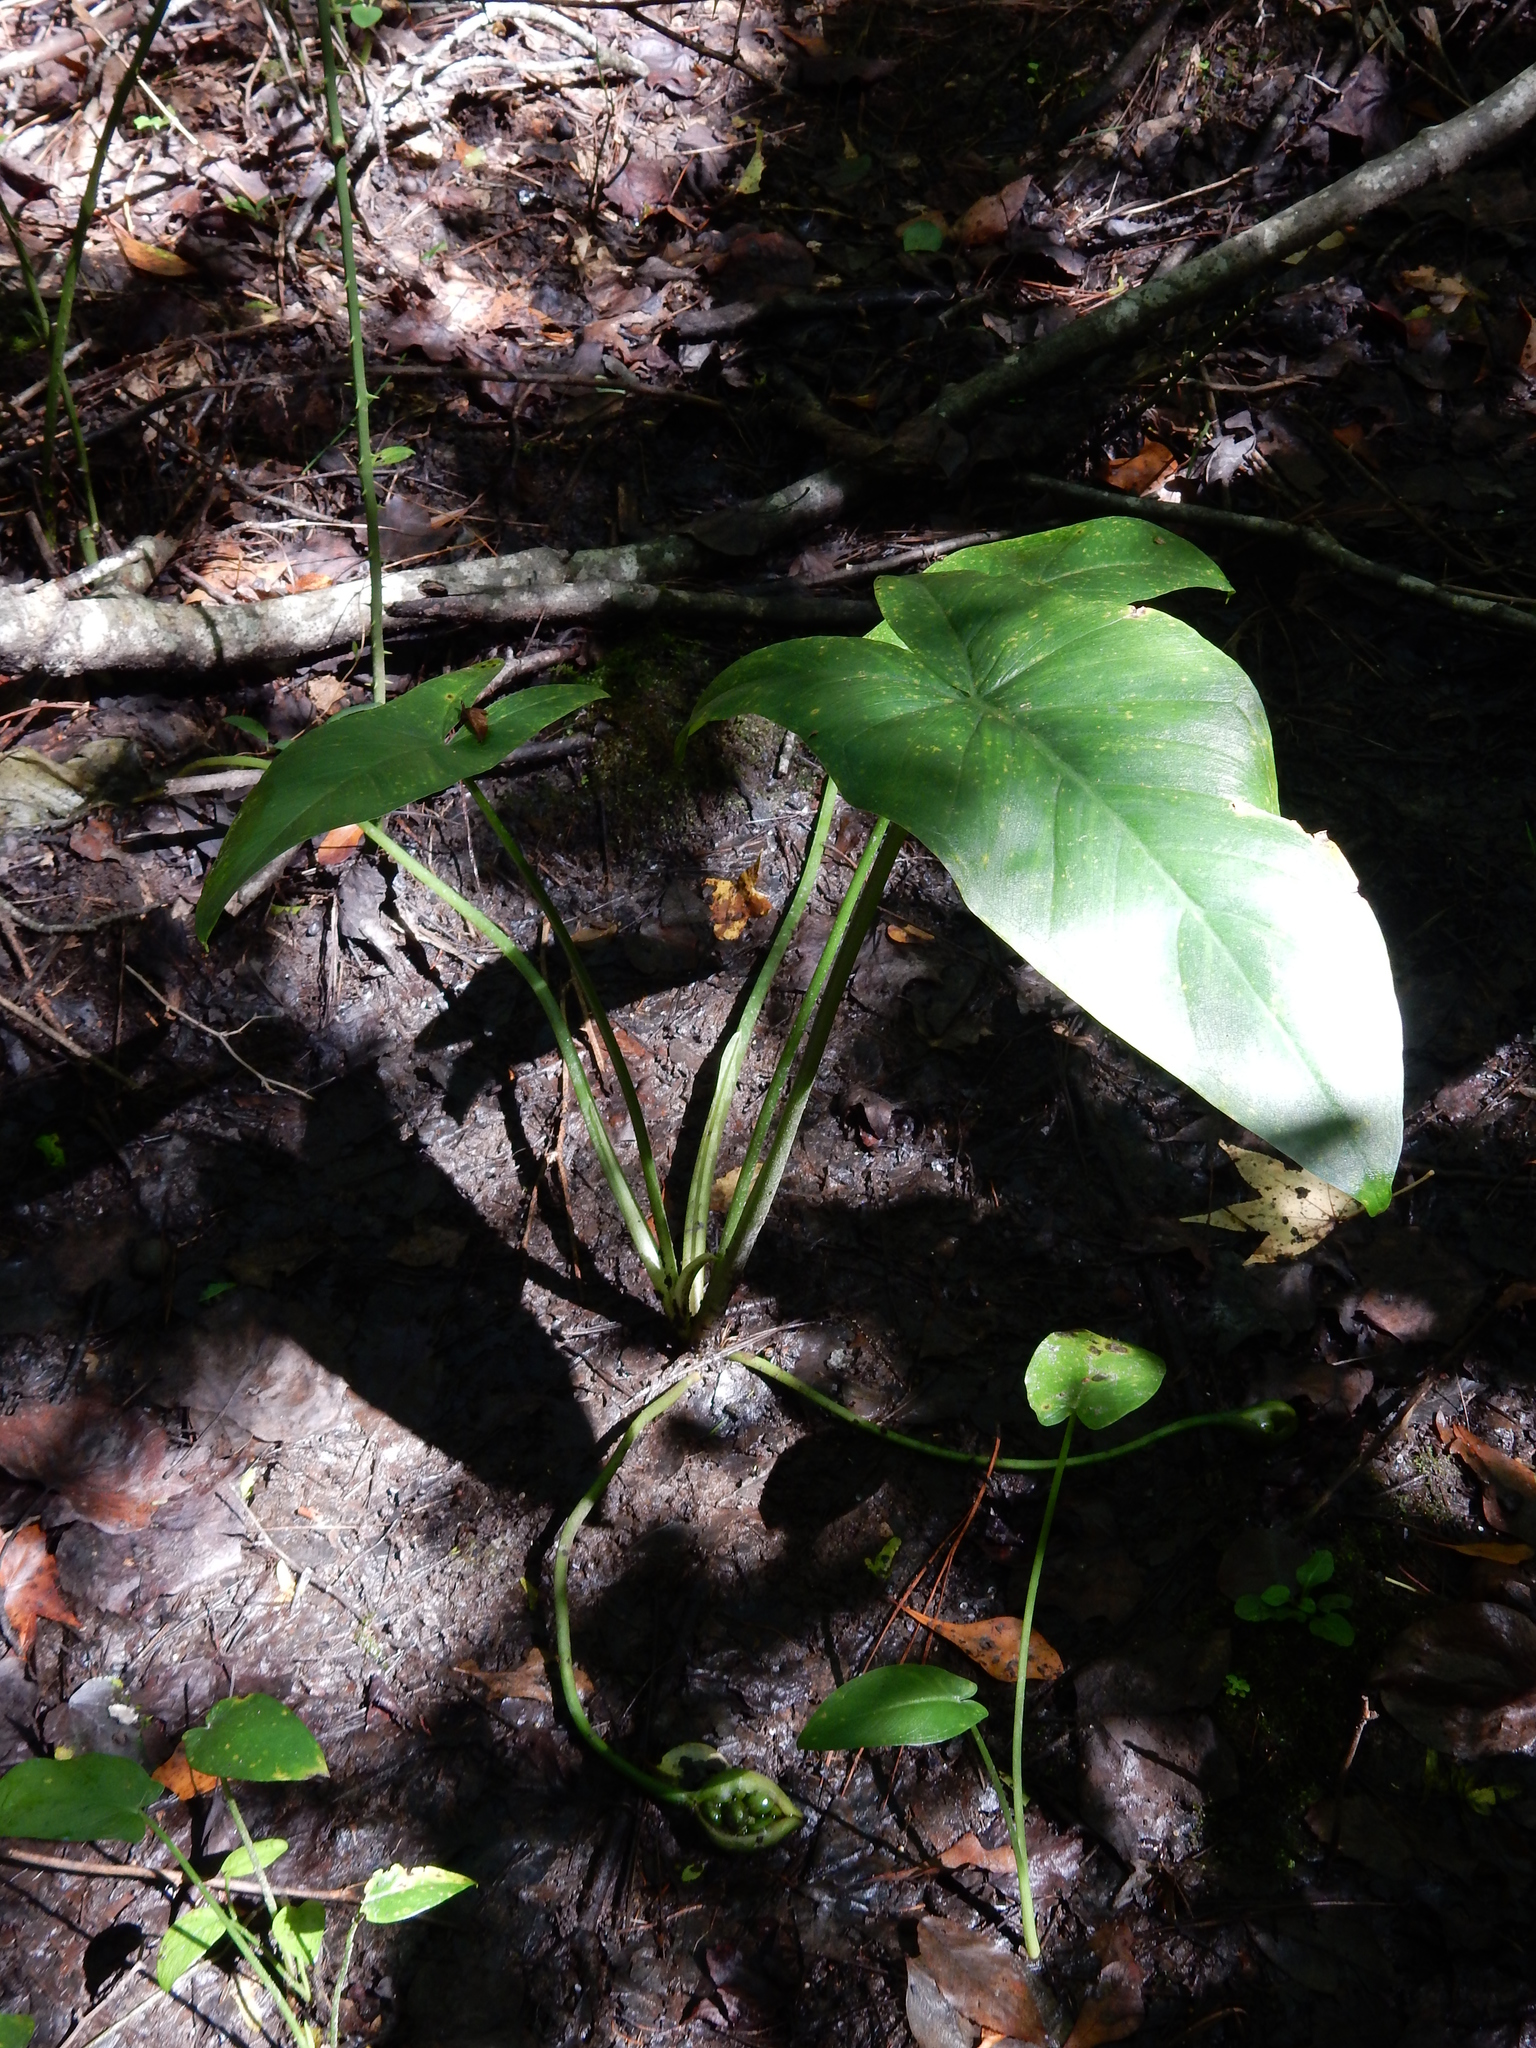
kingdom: Plantae
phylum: Tracheophyta
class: Liliopsida
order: Alismatales
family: Araceae
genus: Peltandra
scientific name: Peltandra virginica
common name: Arrow arum
